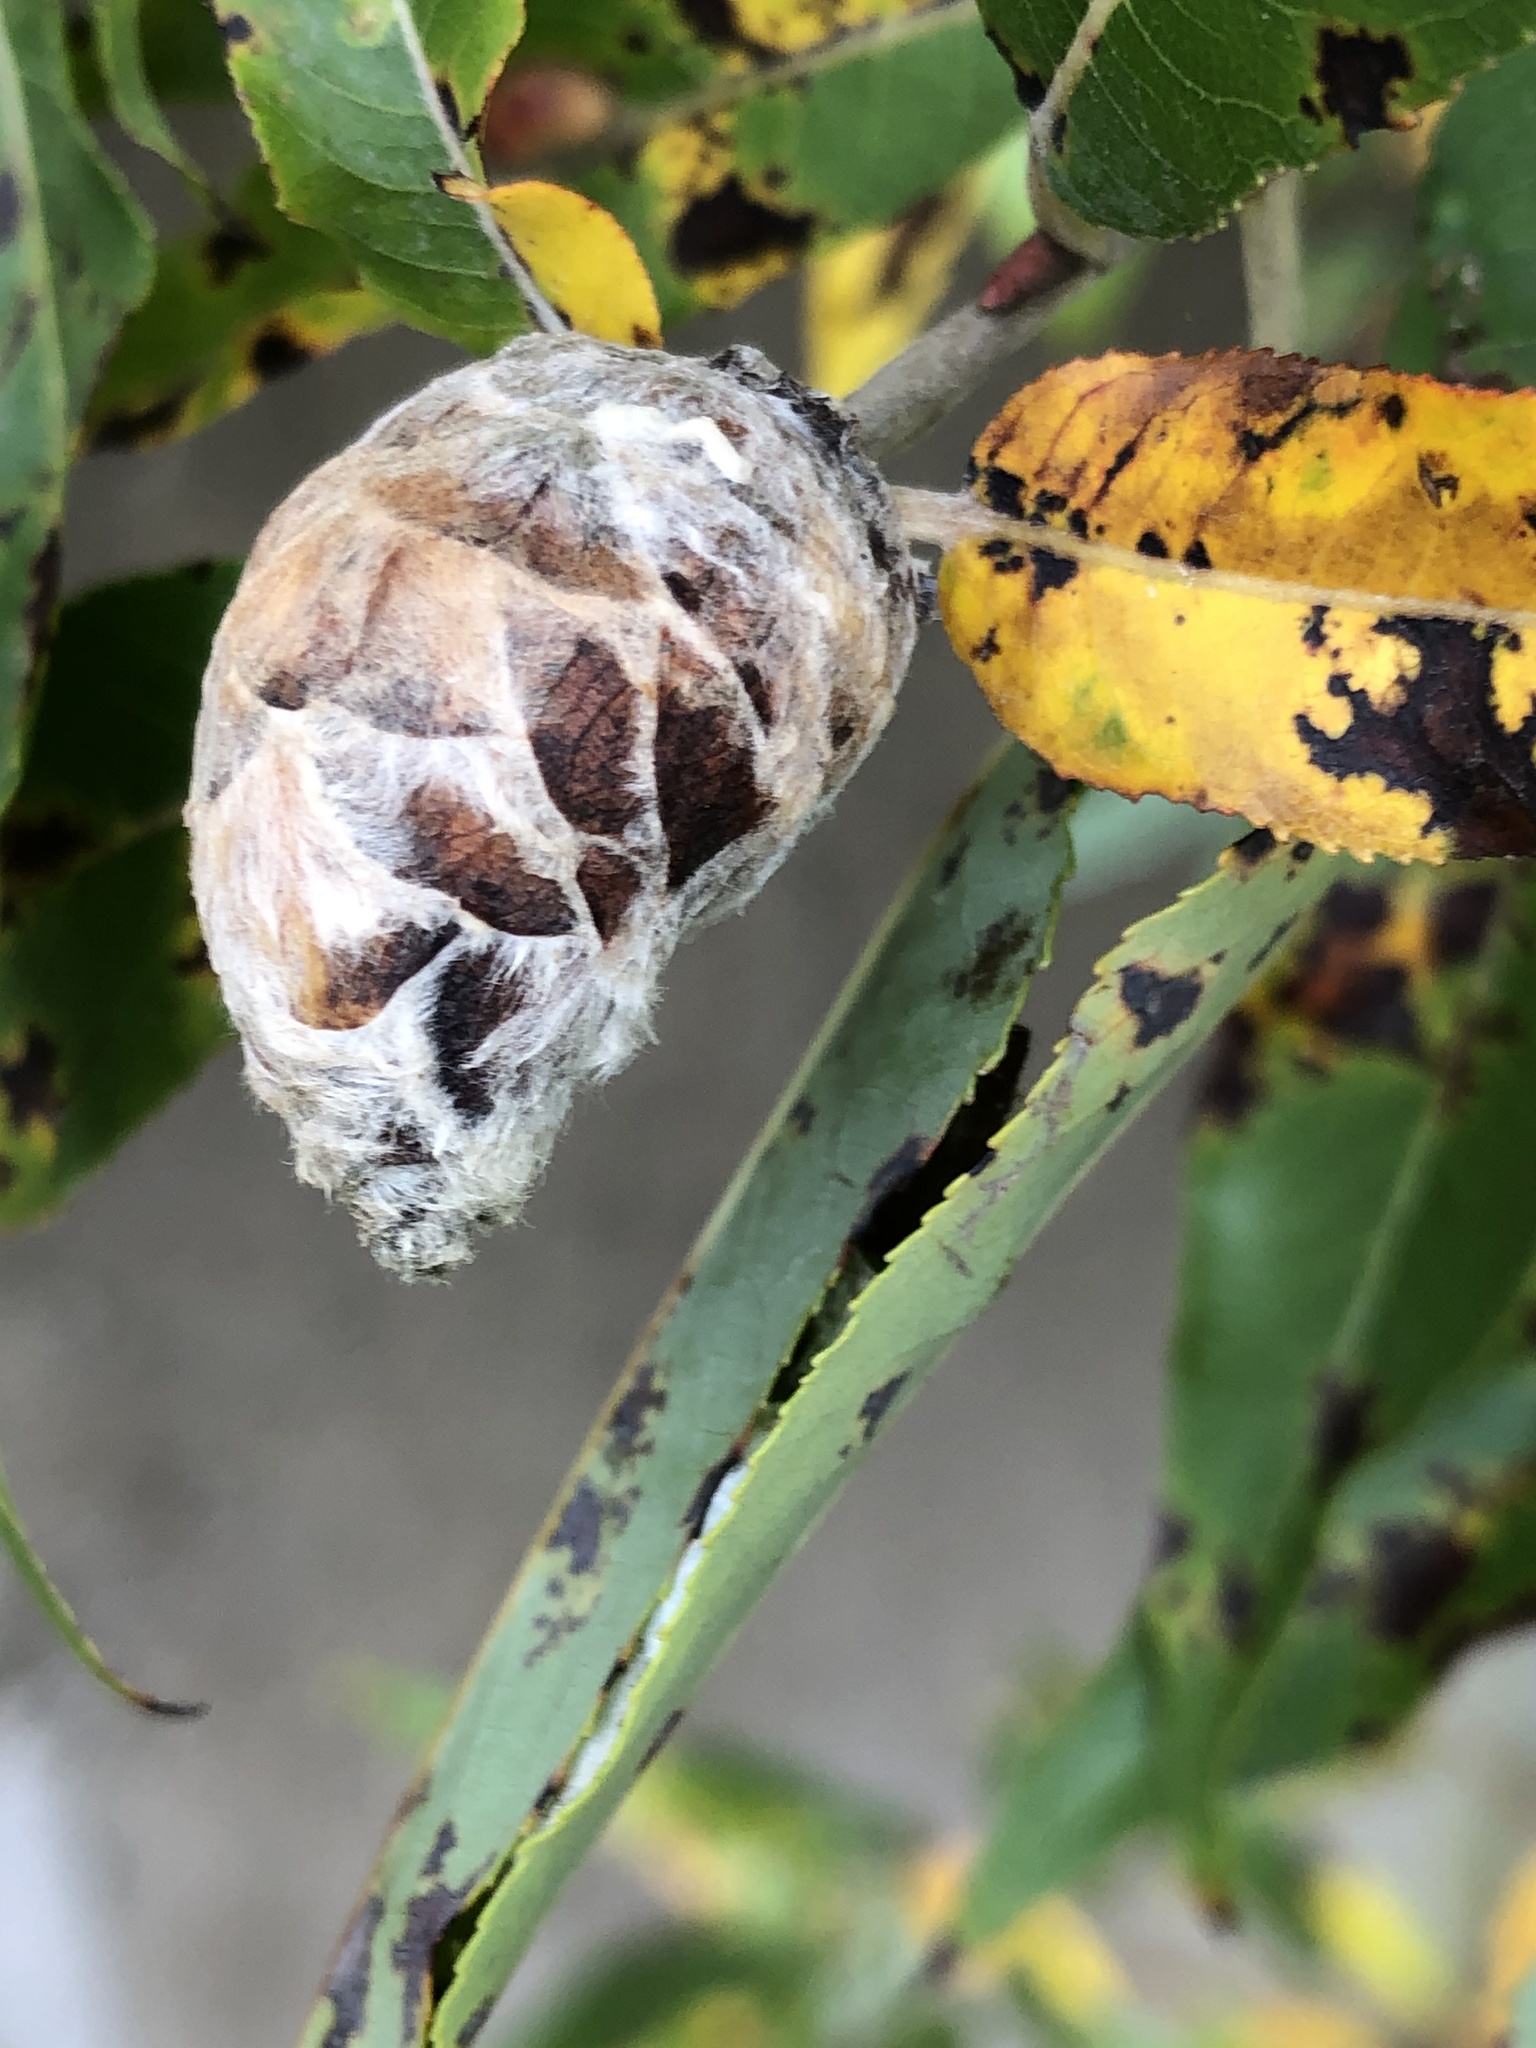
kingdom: Animalia
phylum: Arthropoda
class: Insecta
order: Diptera
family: Cecidomyiidae
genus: Rabdophaga
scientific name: Rabdophaga strobiloides
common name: Willow pinecone gall midge
